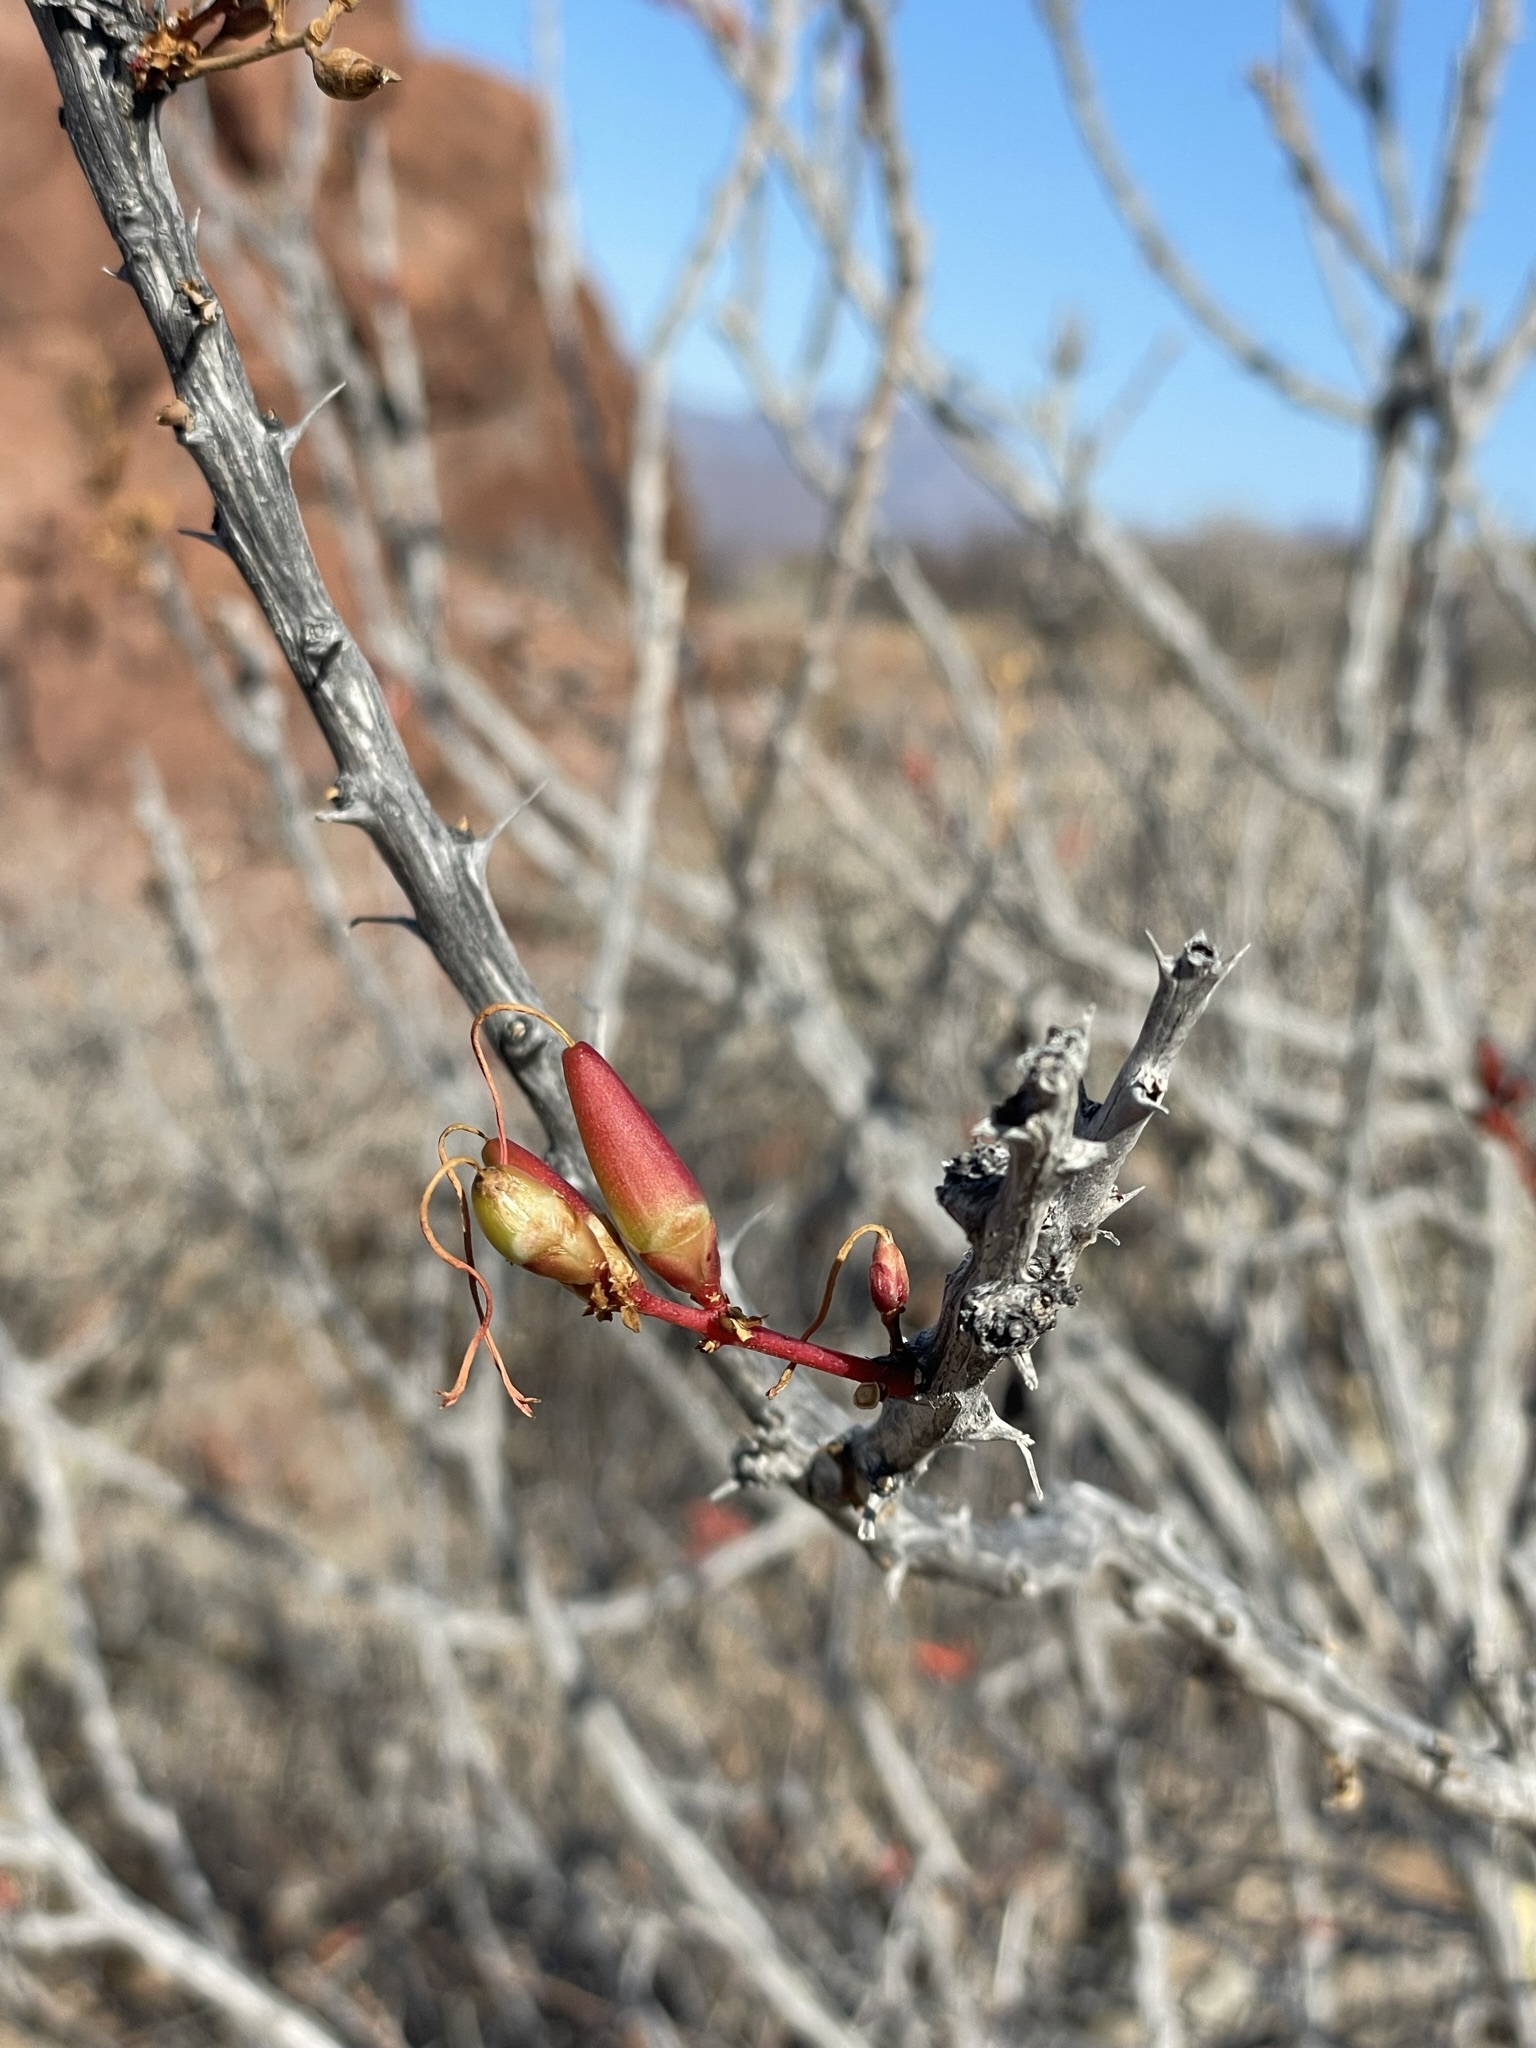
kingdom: Plantae
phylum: Tracheophyta
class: Magnoliopsida
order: Ericales
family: Fouquieriaceae
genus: Fouquieria
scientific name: Fouquieria diguetii
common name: Adam's tree
